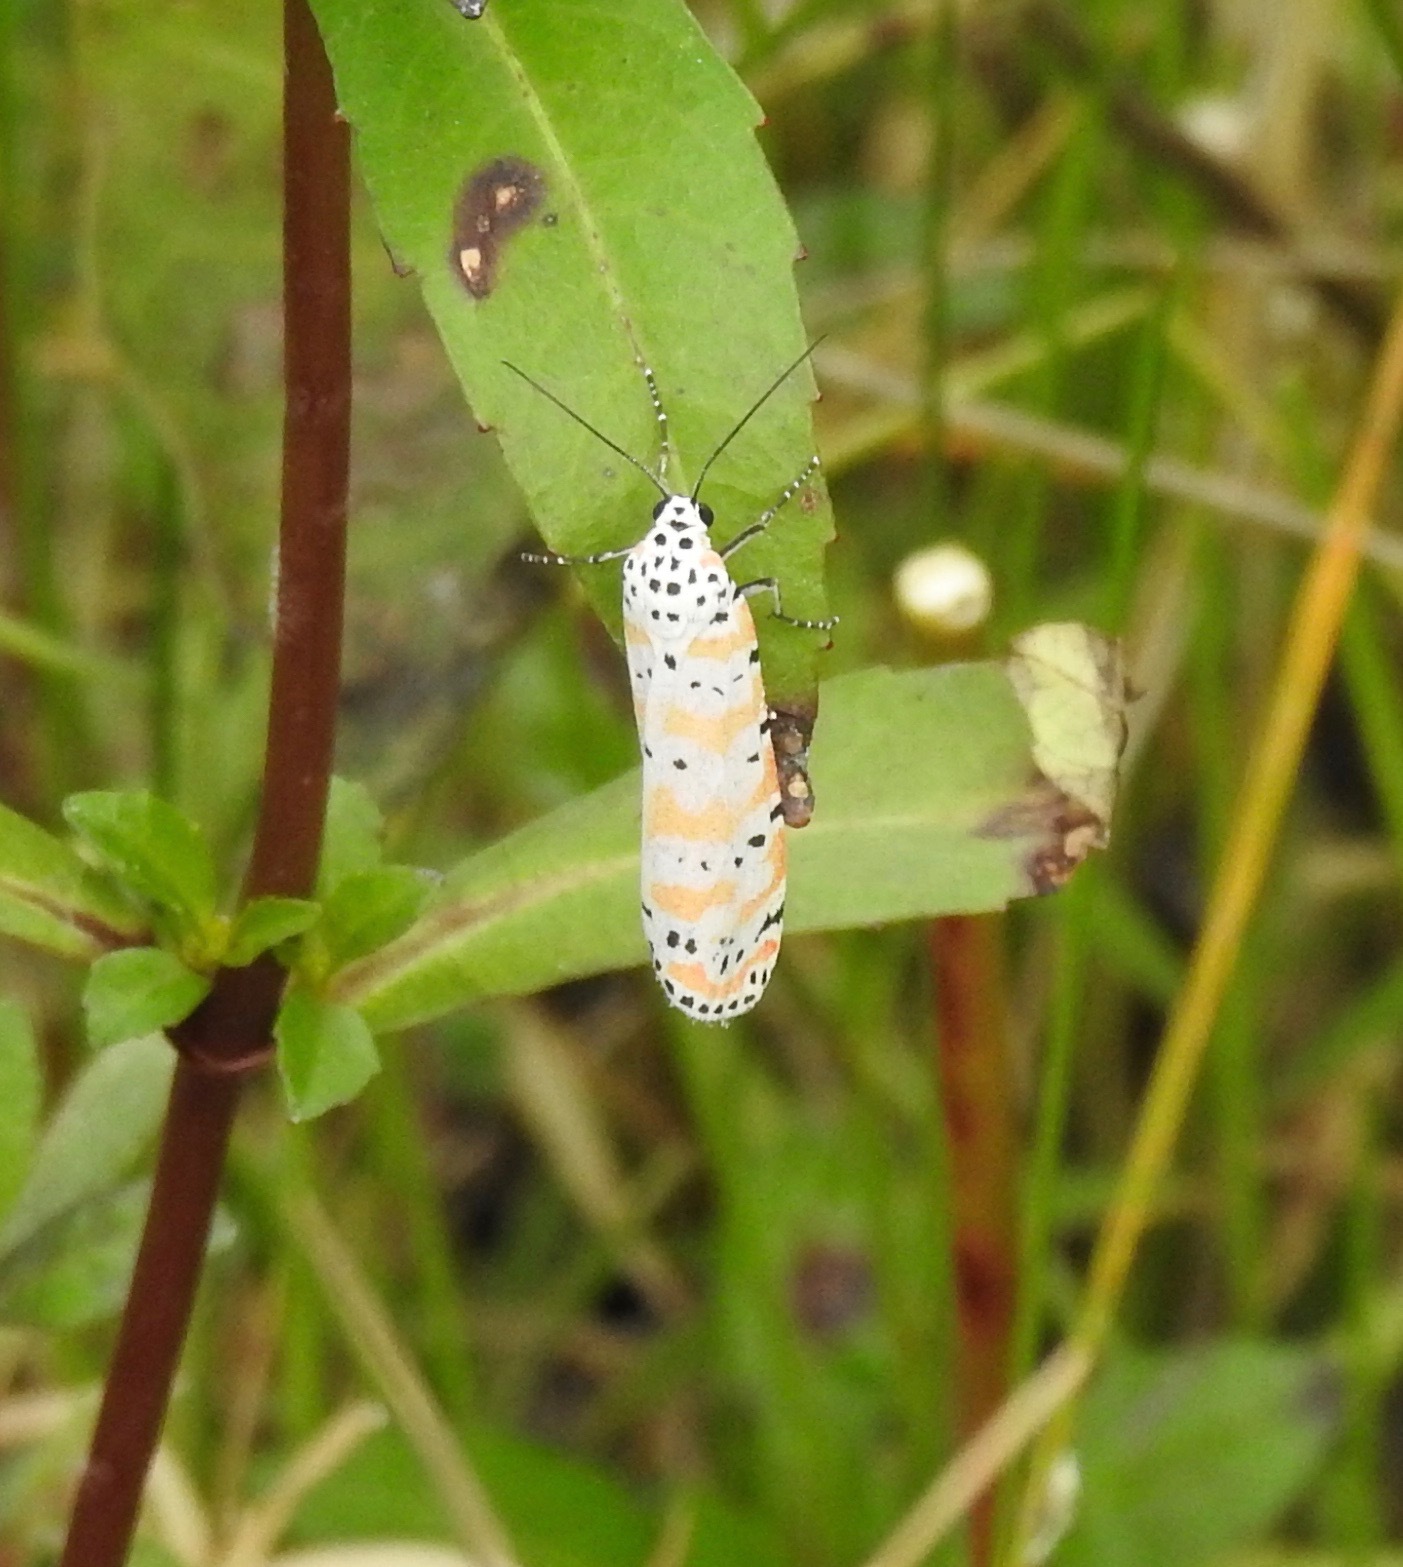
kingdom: Animalia
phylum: Arthropoda
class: Insecta
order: Lepidoptera
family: Erebidae
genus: Utetheisa
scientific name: Utetheisa ornatrix
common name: Beautiful utetheisa
